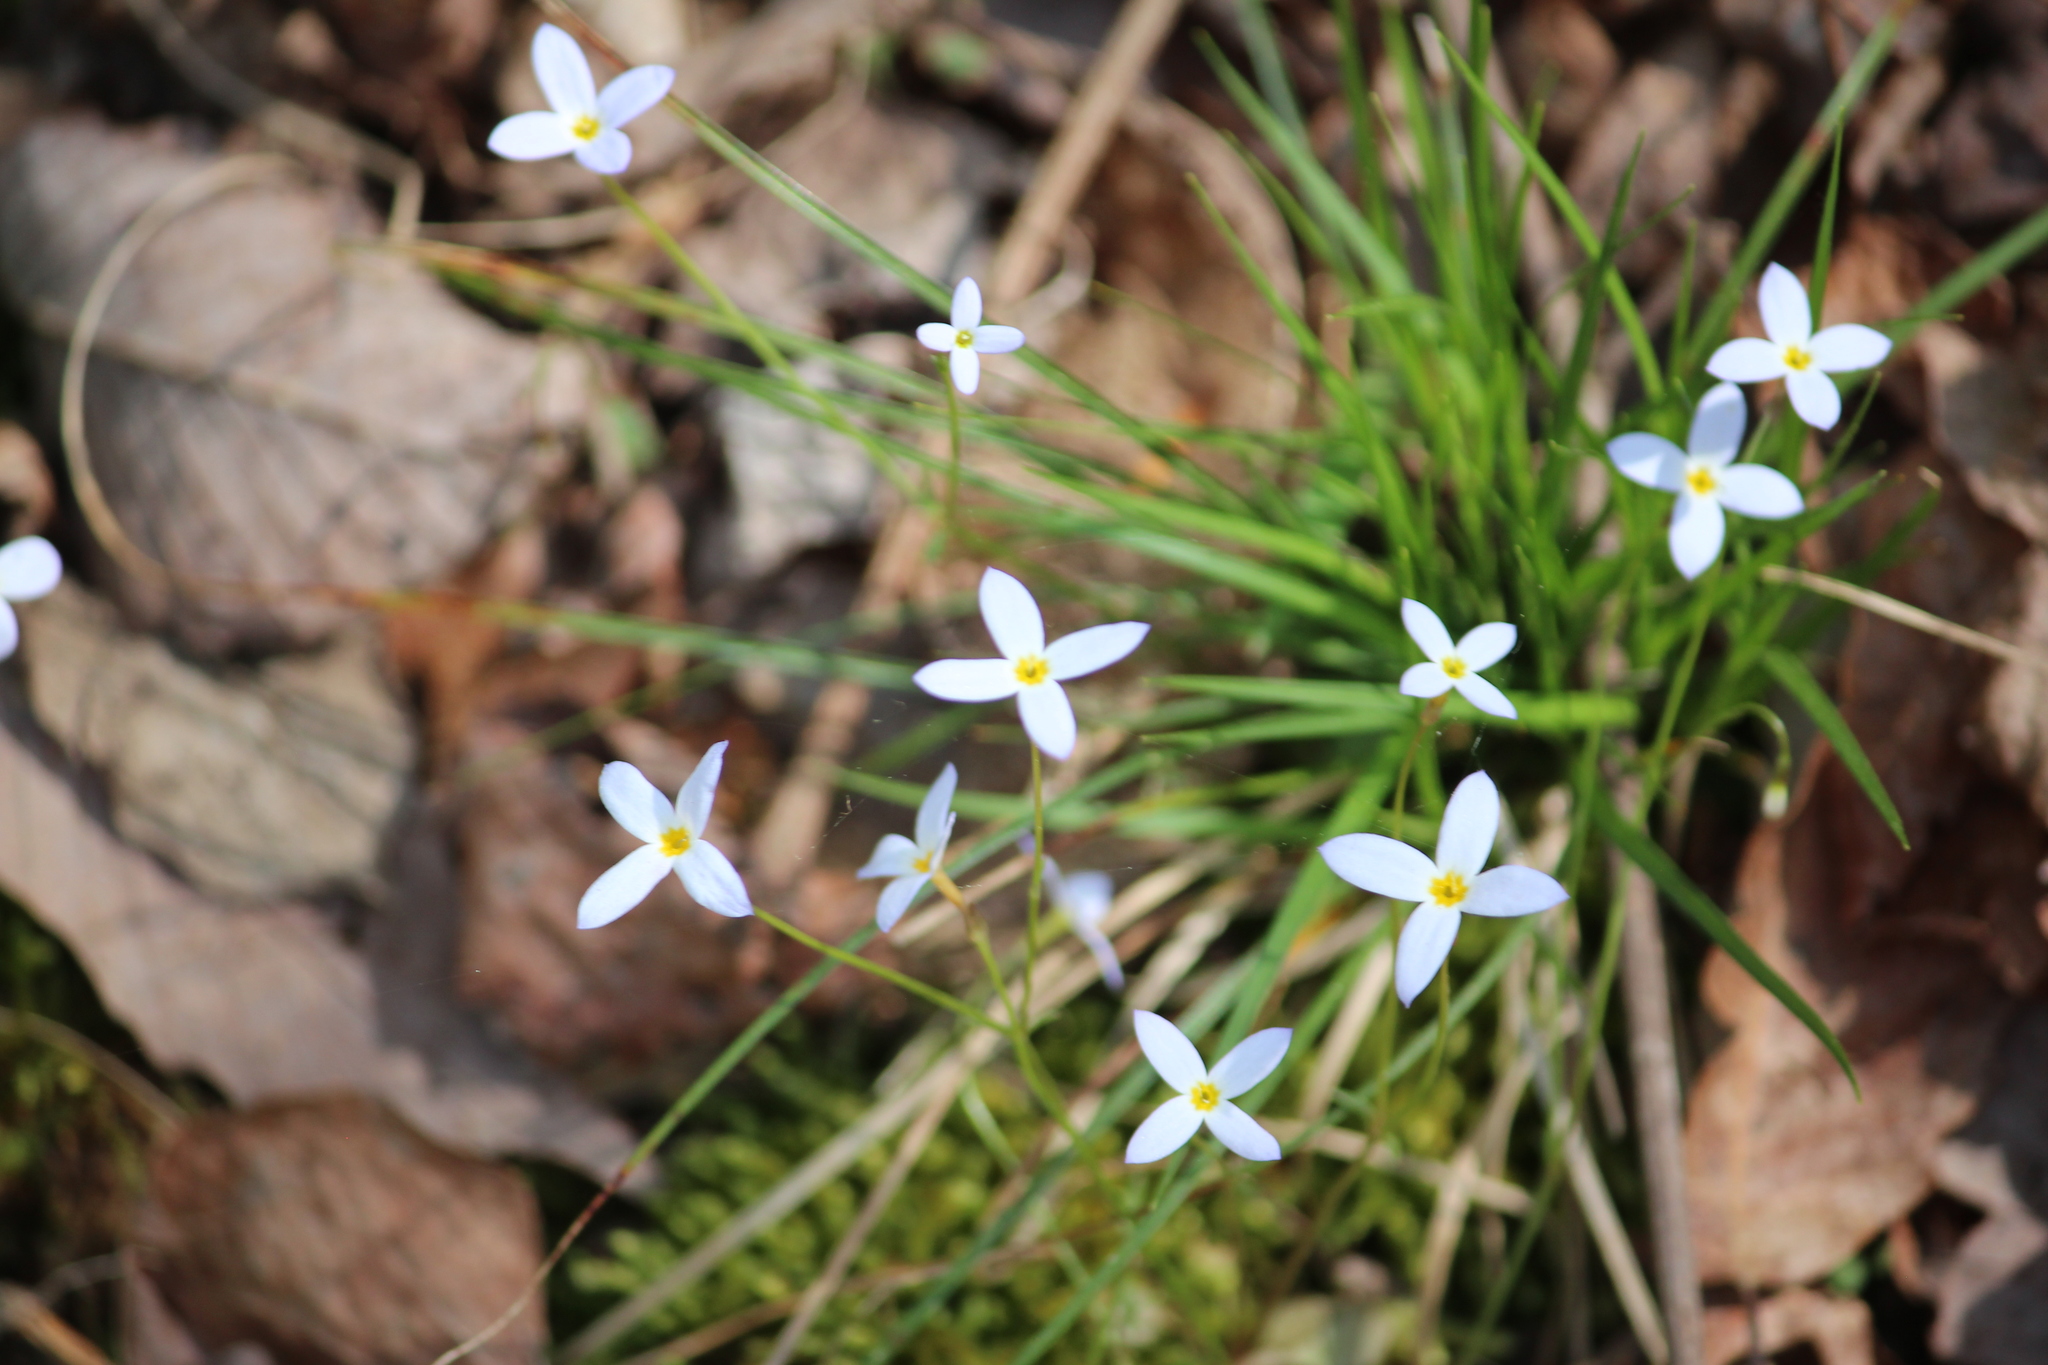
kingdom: Plantae
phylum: Tracheophyta
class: Magnoliopsida
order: Gentianales
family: Rubiaceae
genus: Houstonia
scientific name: Houstonia caerulea
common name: Bluets
